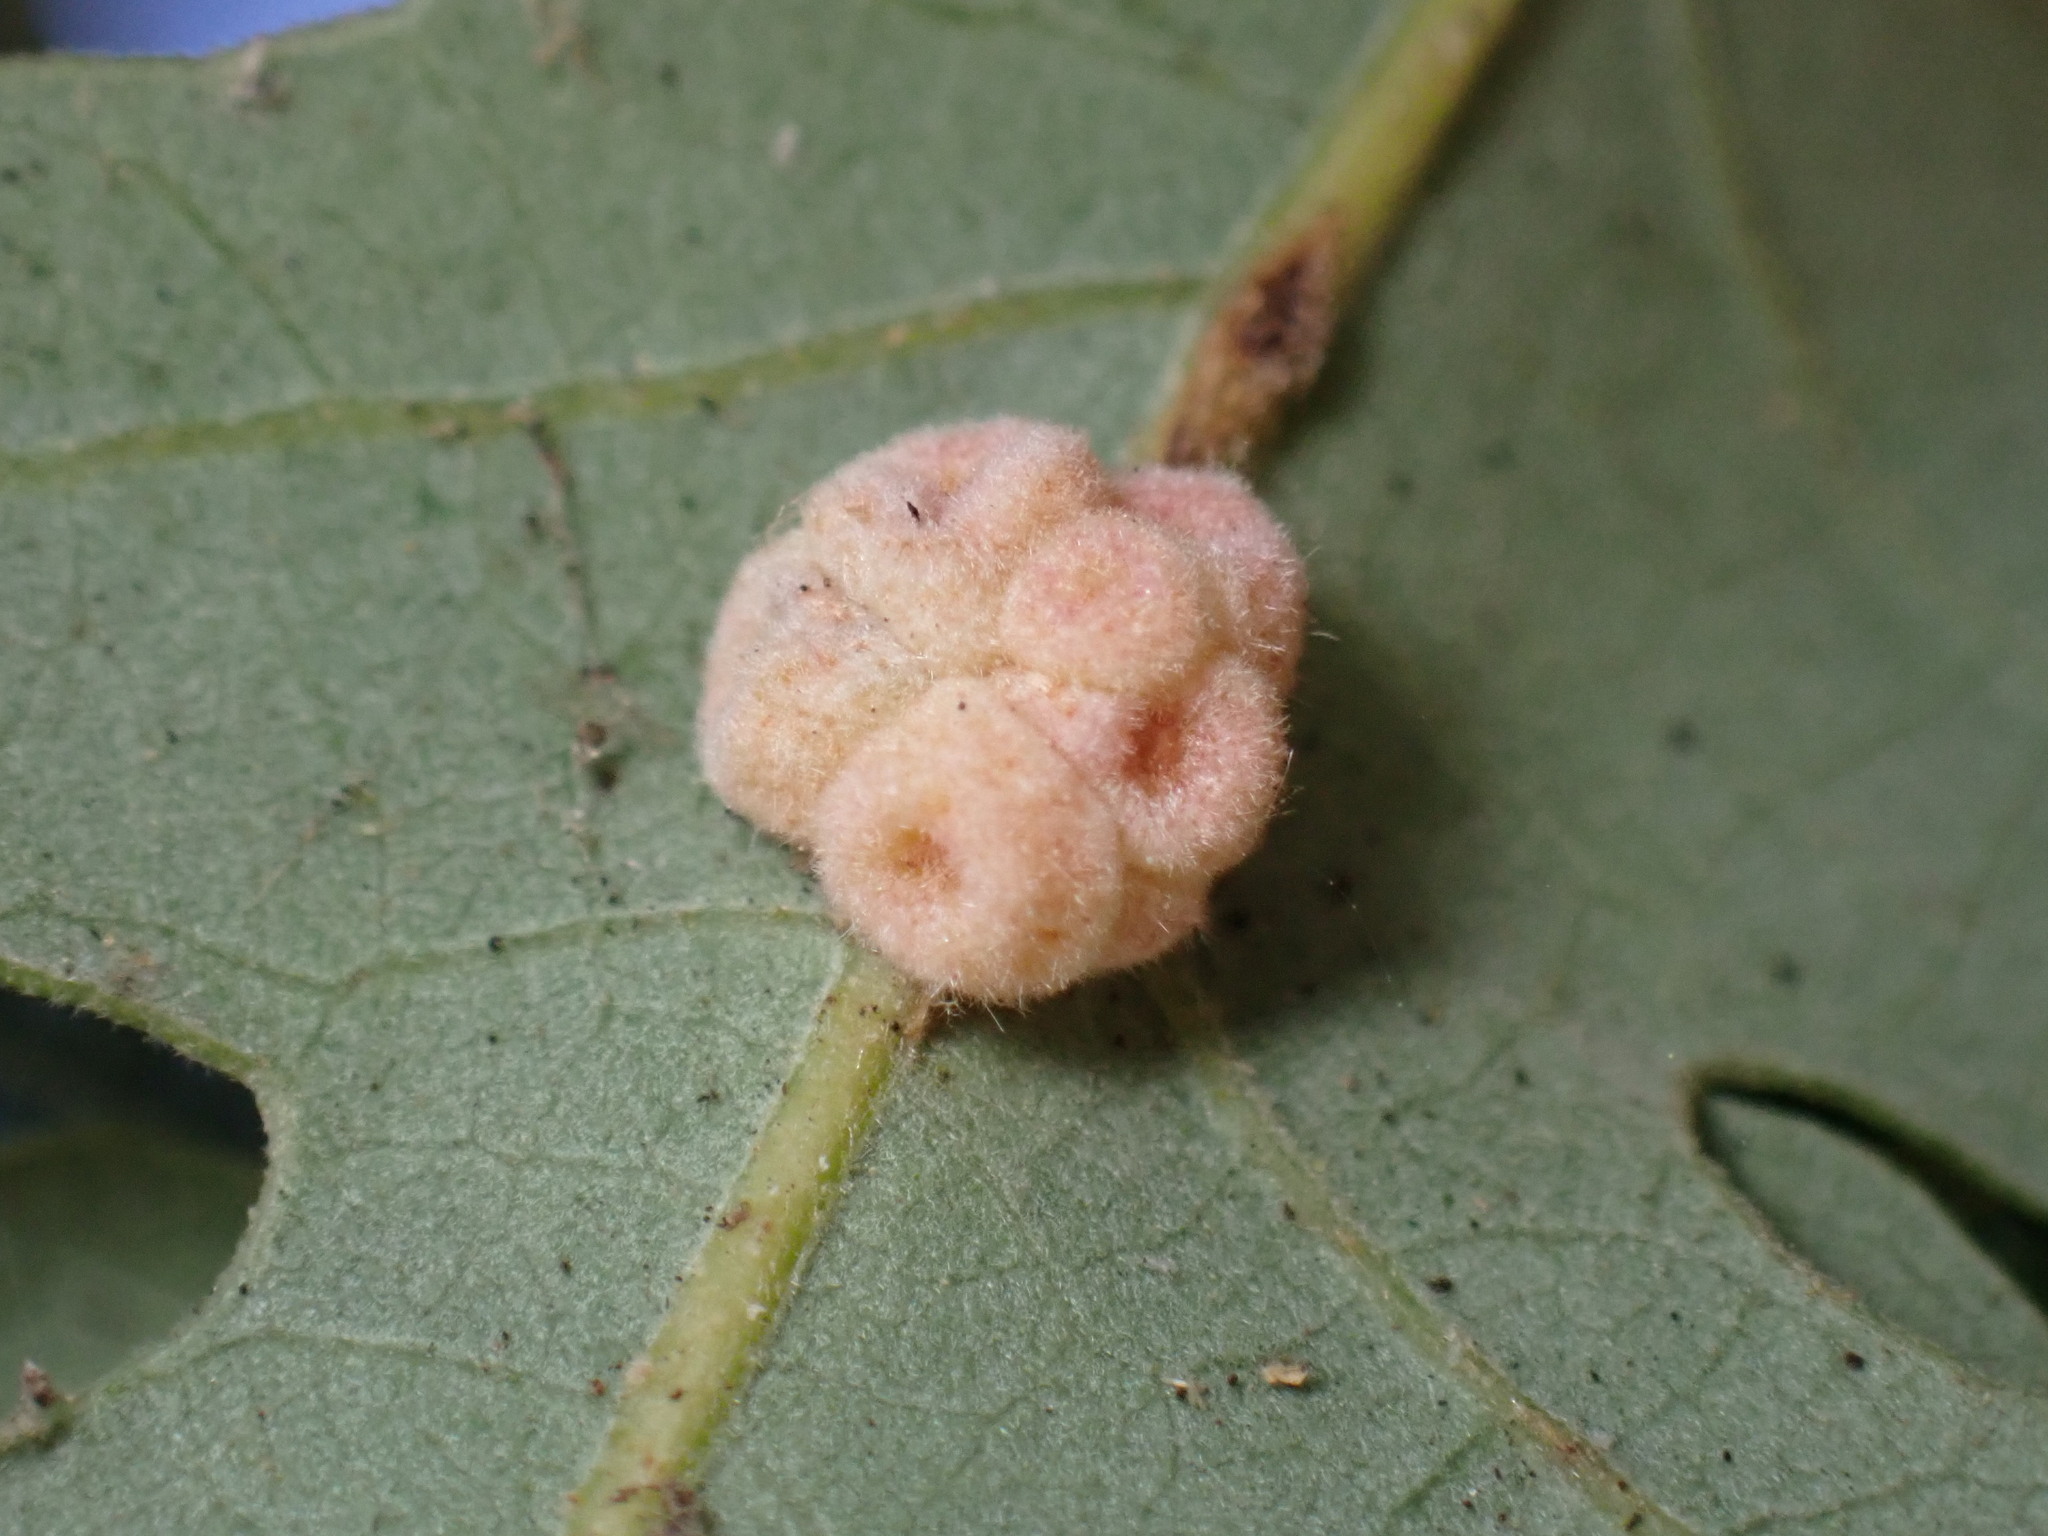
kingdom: Animalia
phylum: Arthropoda
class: Insecta
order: Hymenoptera
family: Cynipidae
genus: Andricus
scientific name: Andricus
